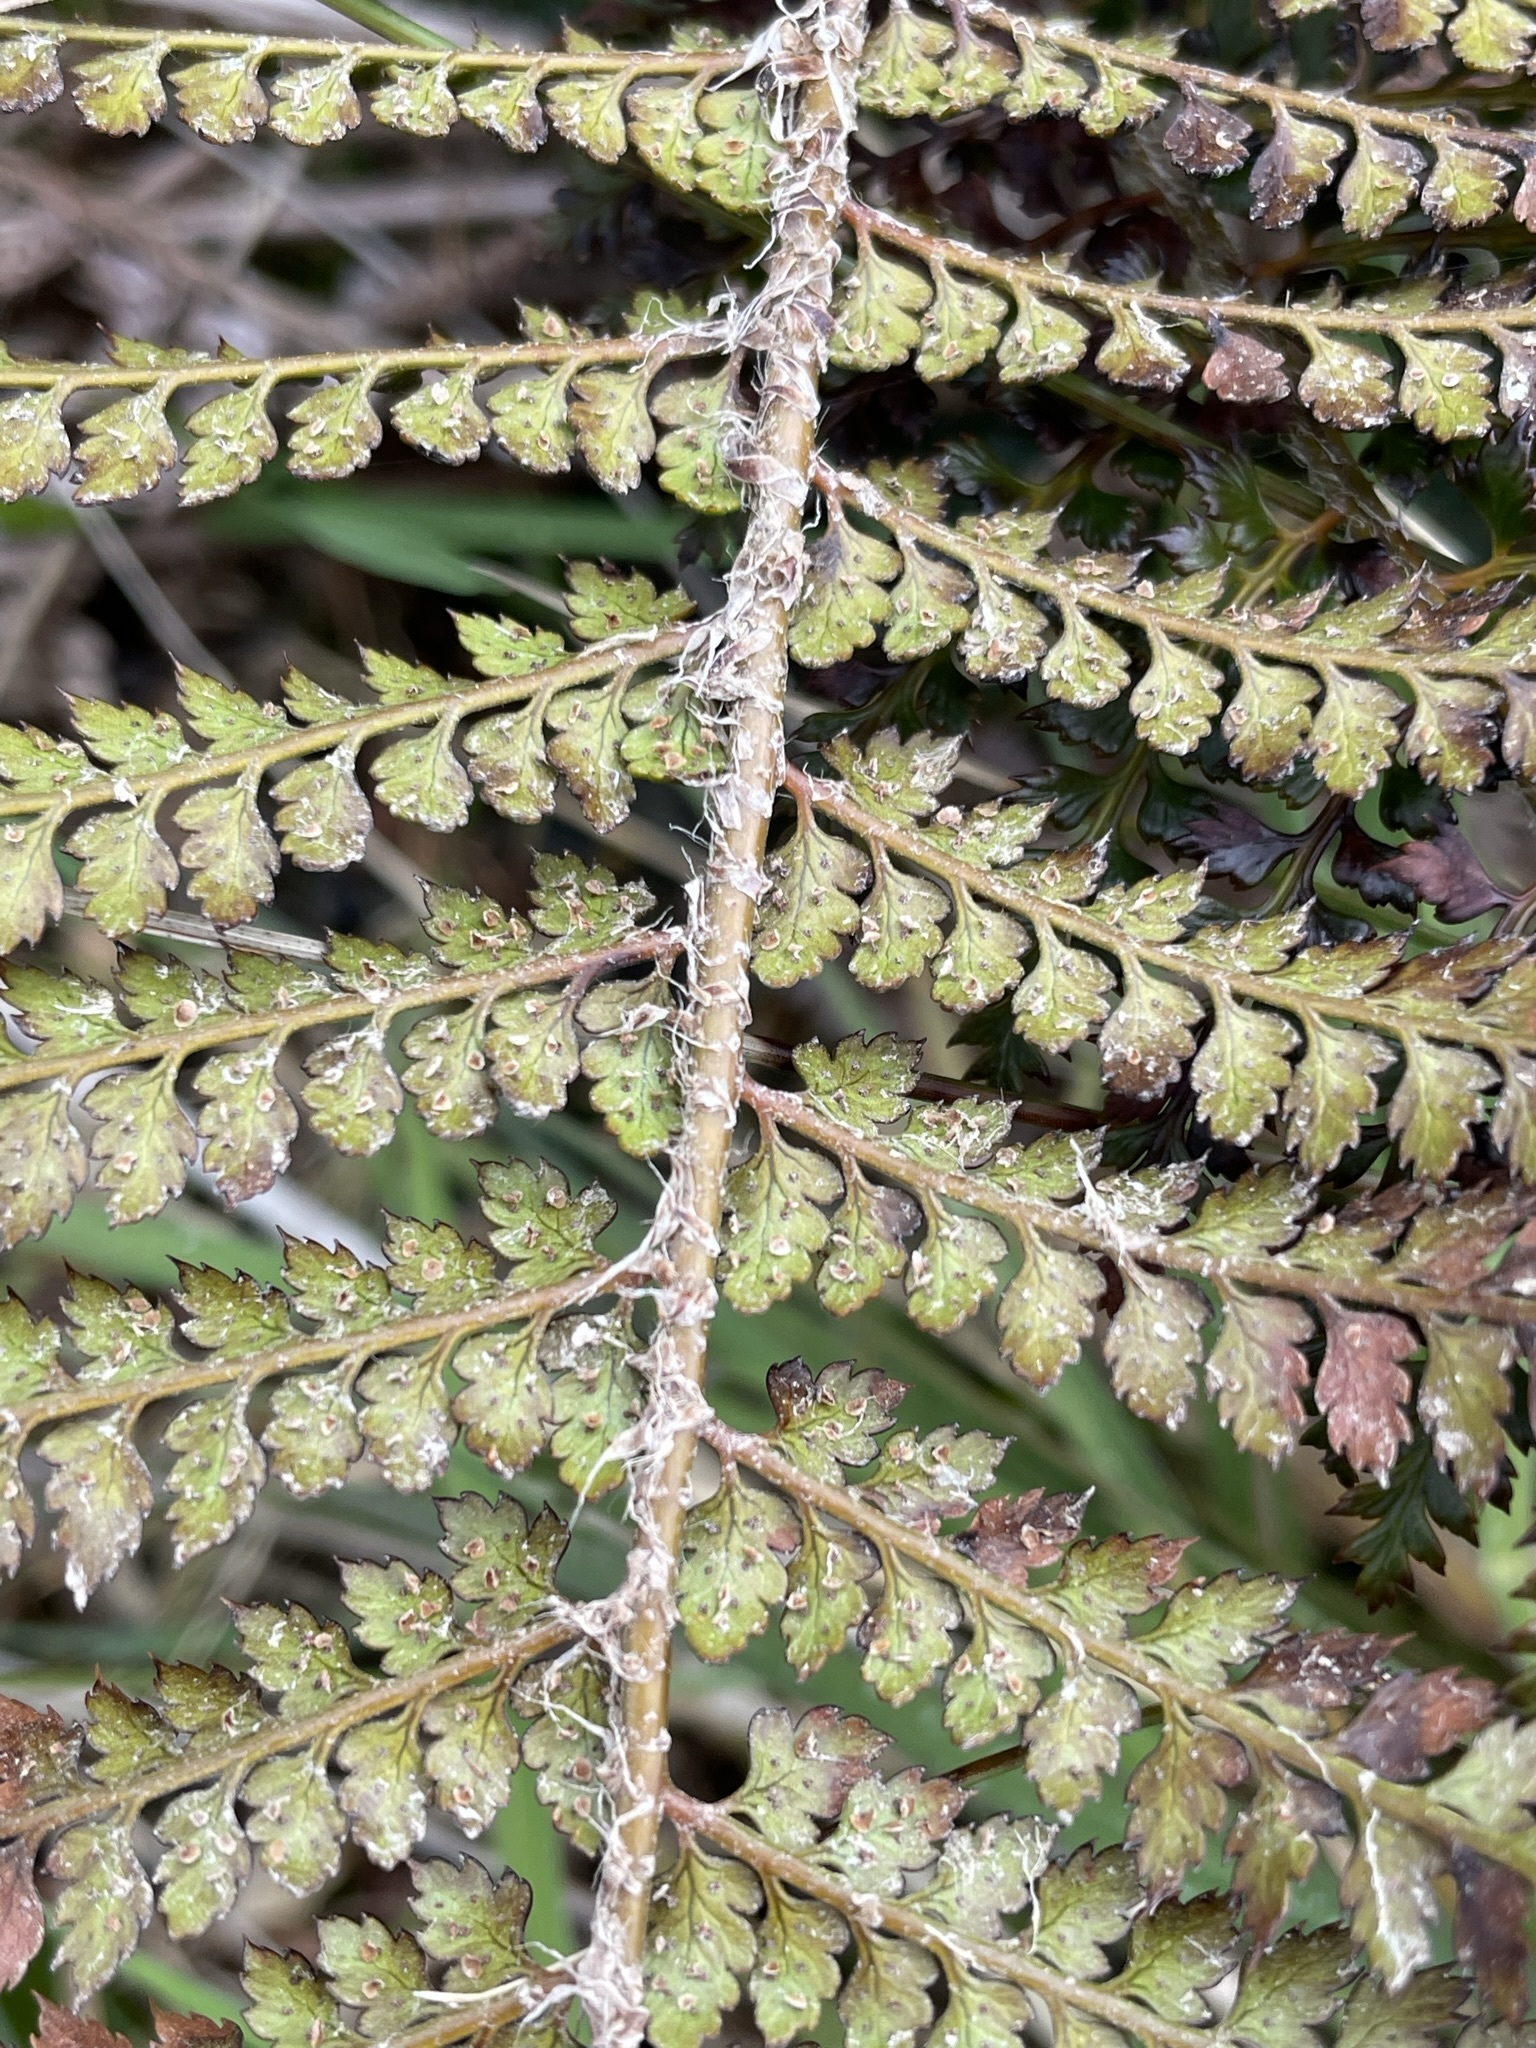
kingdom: Plantae
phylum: Tracheophyta
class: Polypodiopsida
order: Polypodiales
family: Dryopteridaceae
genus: Polystichum
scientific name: Polystichum vestitum
